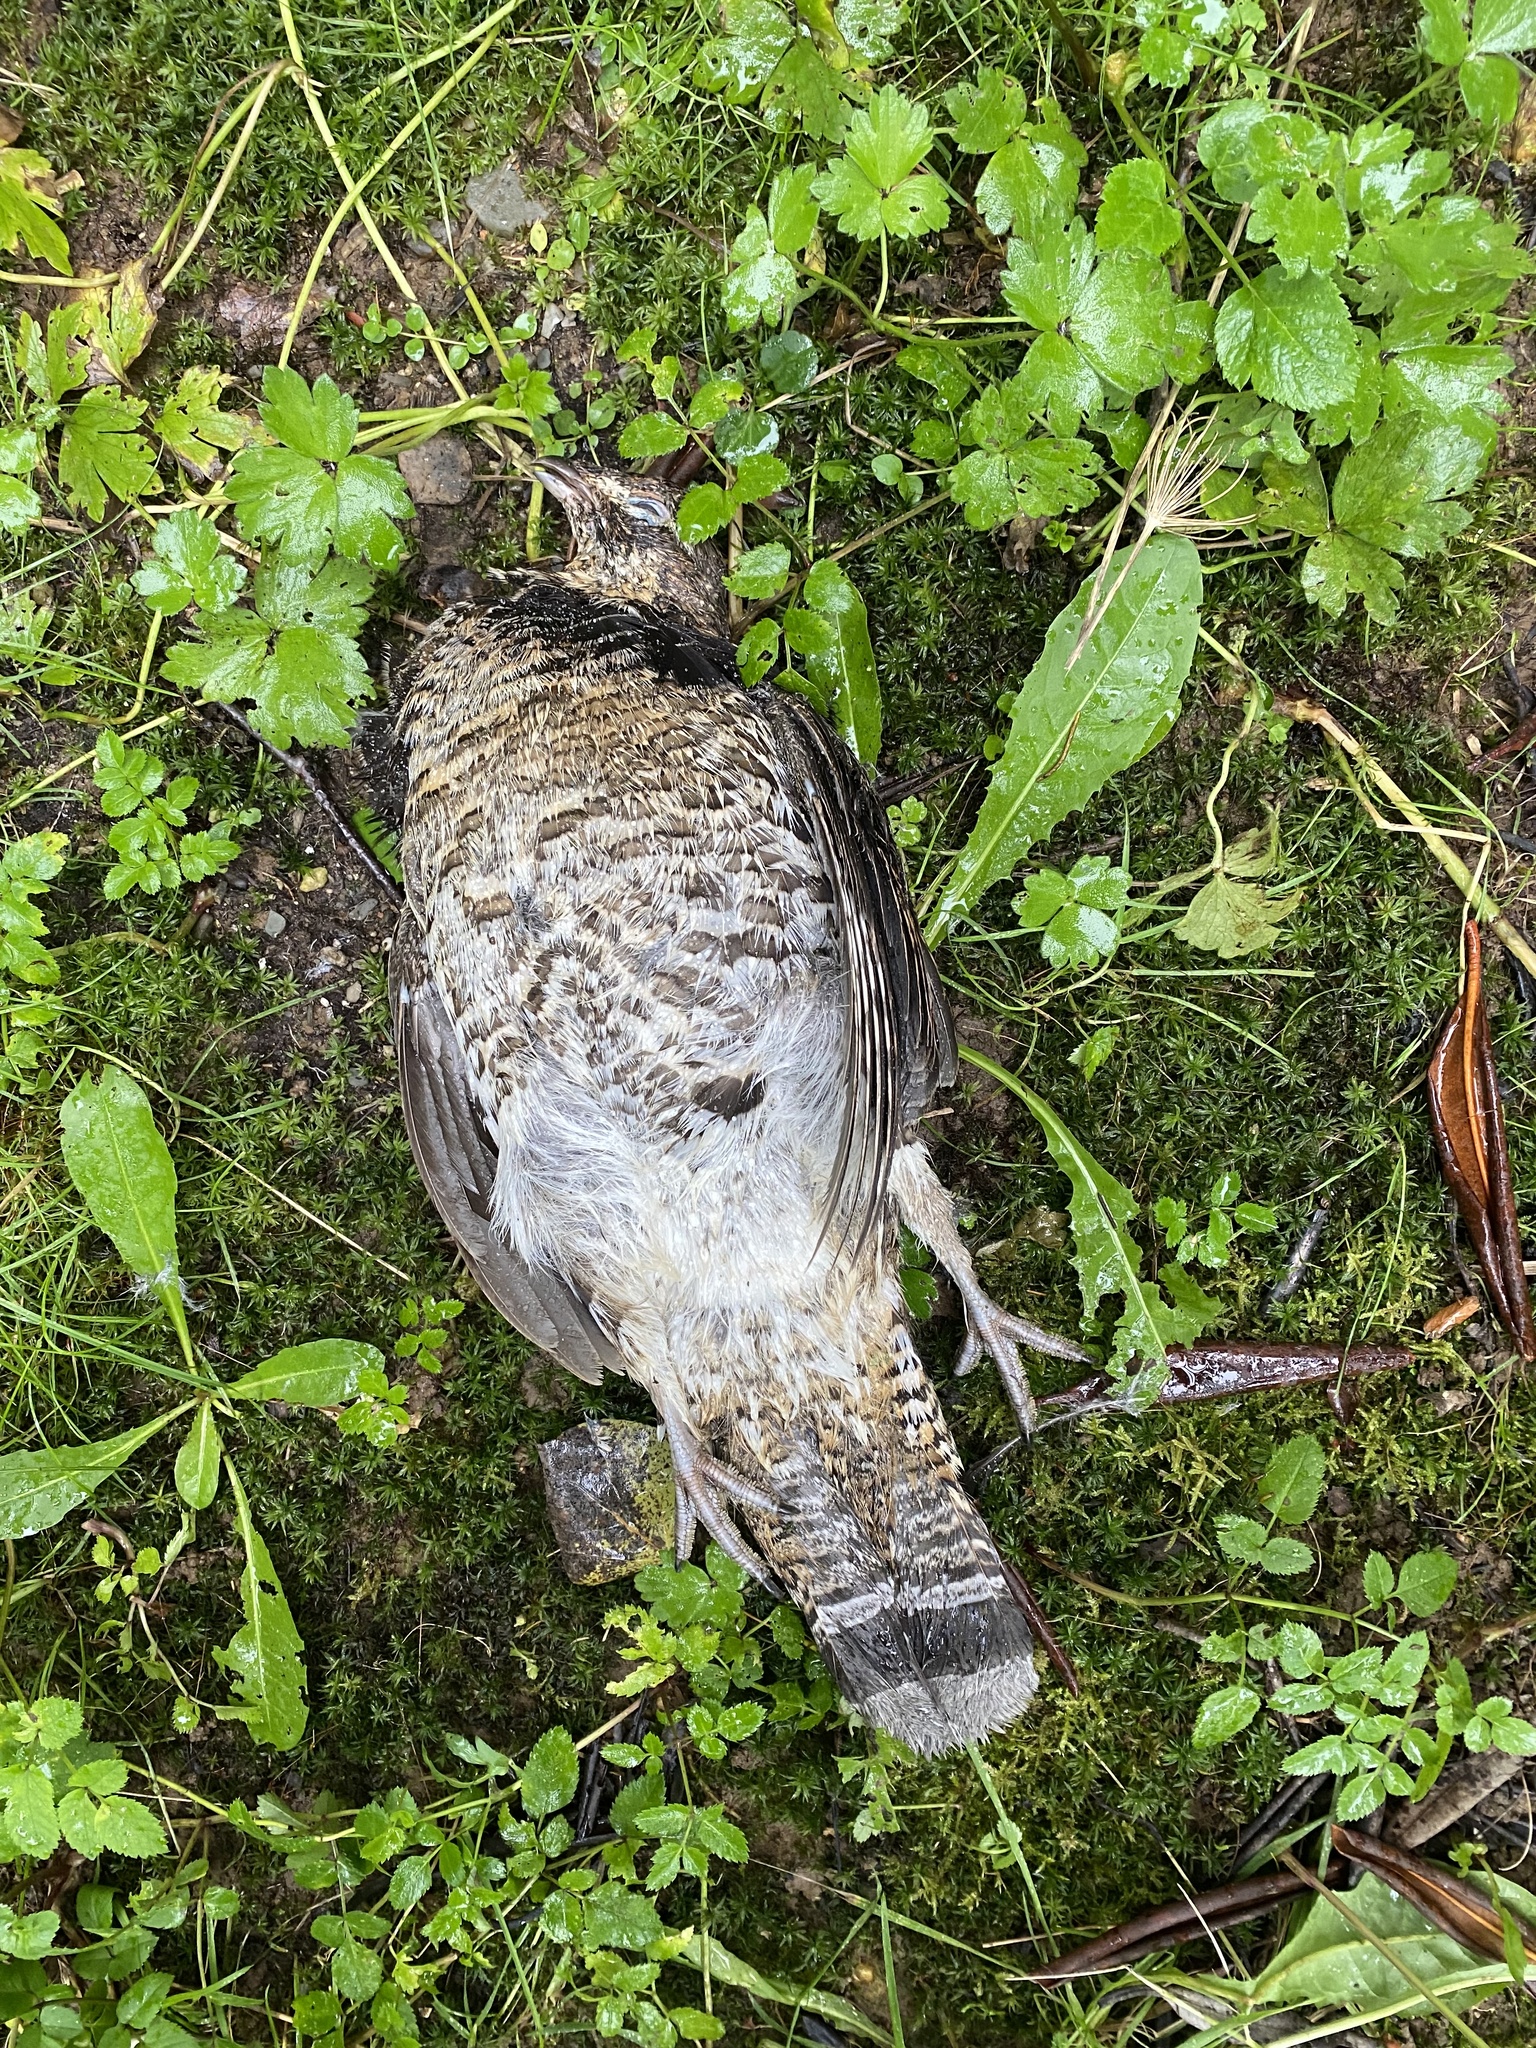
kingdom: Animalia
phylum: Chordata
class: Aves
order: Galliformes
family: Phasianidae
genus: Bonasa
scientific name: Bonasa umbellus
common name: Ruffed grouse
